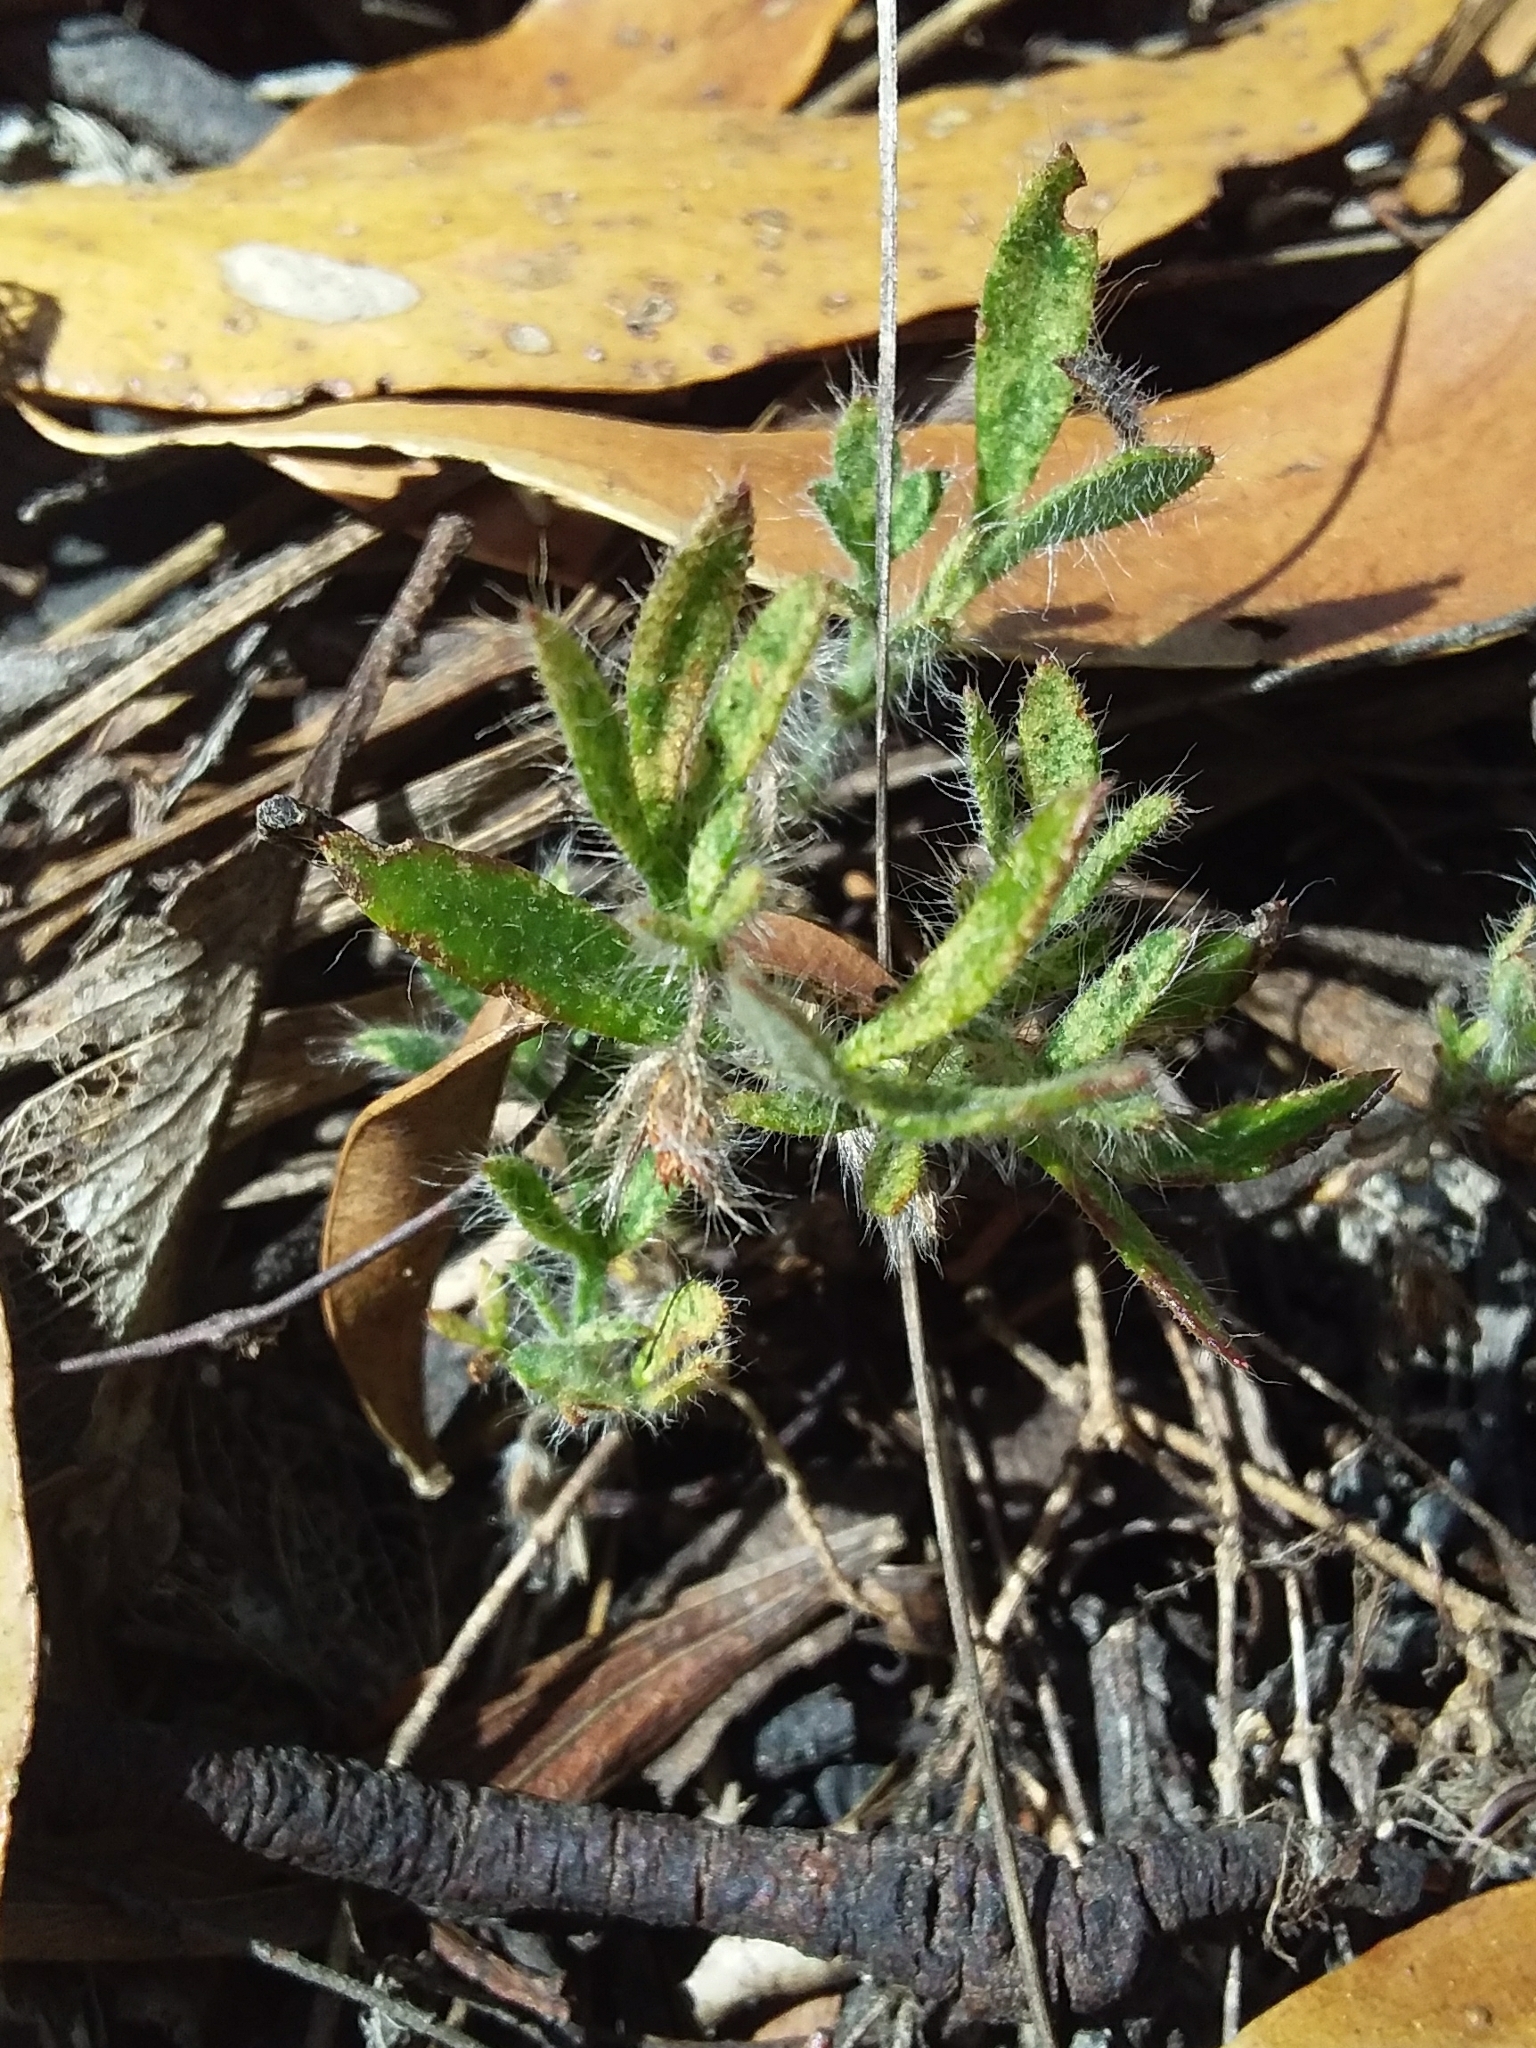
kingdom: Plantae
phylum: Tracheophyta
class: Magnoliopsida
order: Apiales
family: Apiaceae
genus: Xanthosia
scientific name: Xanthosia huegelii
